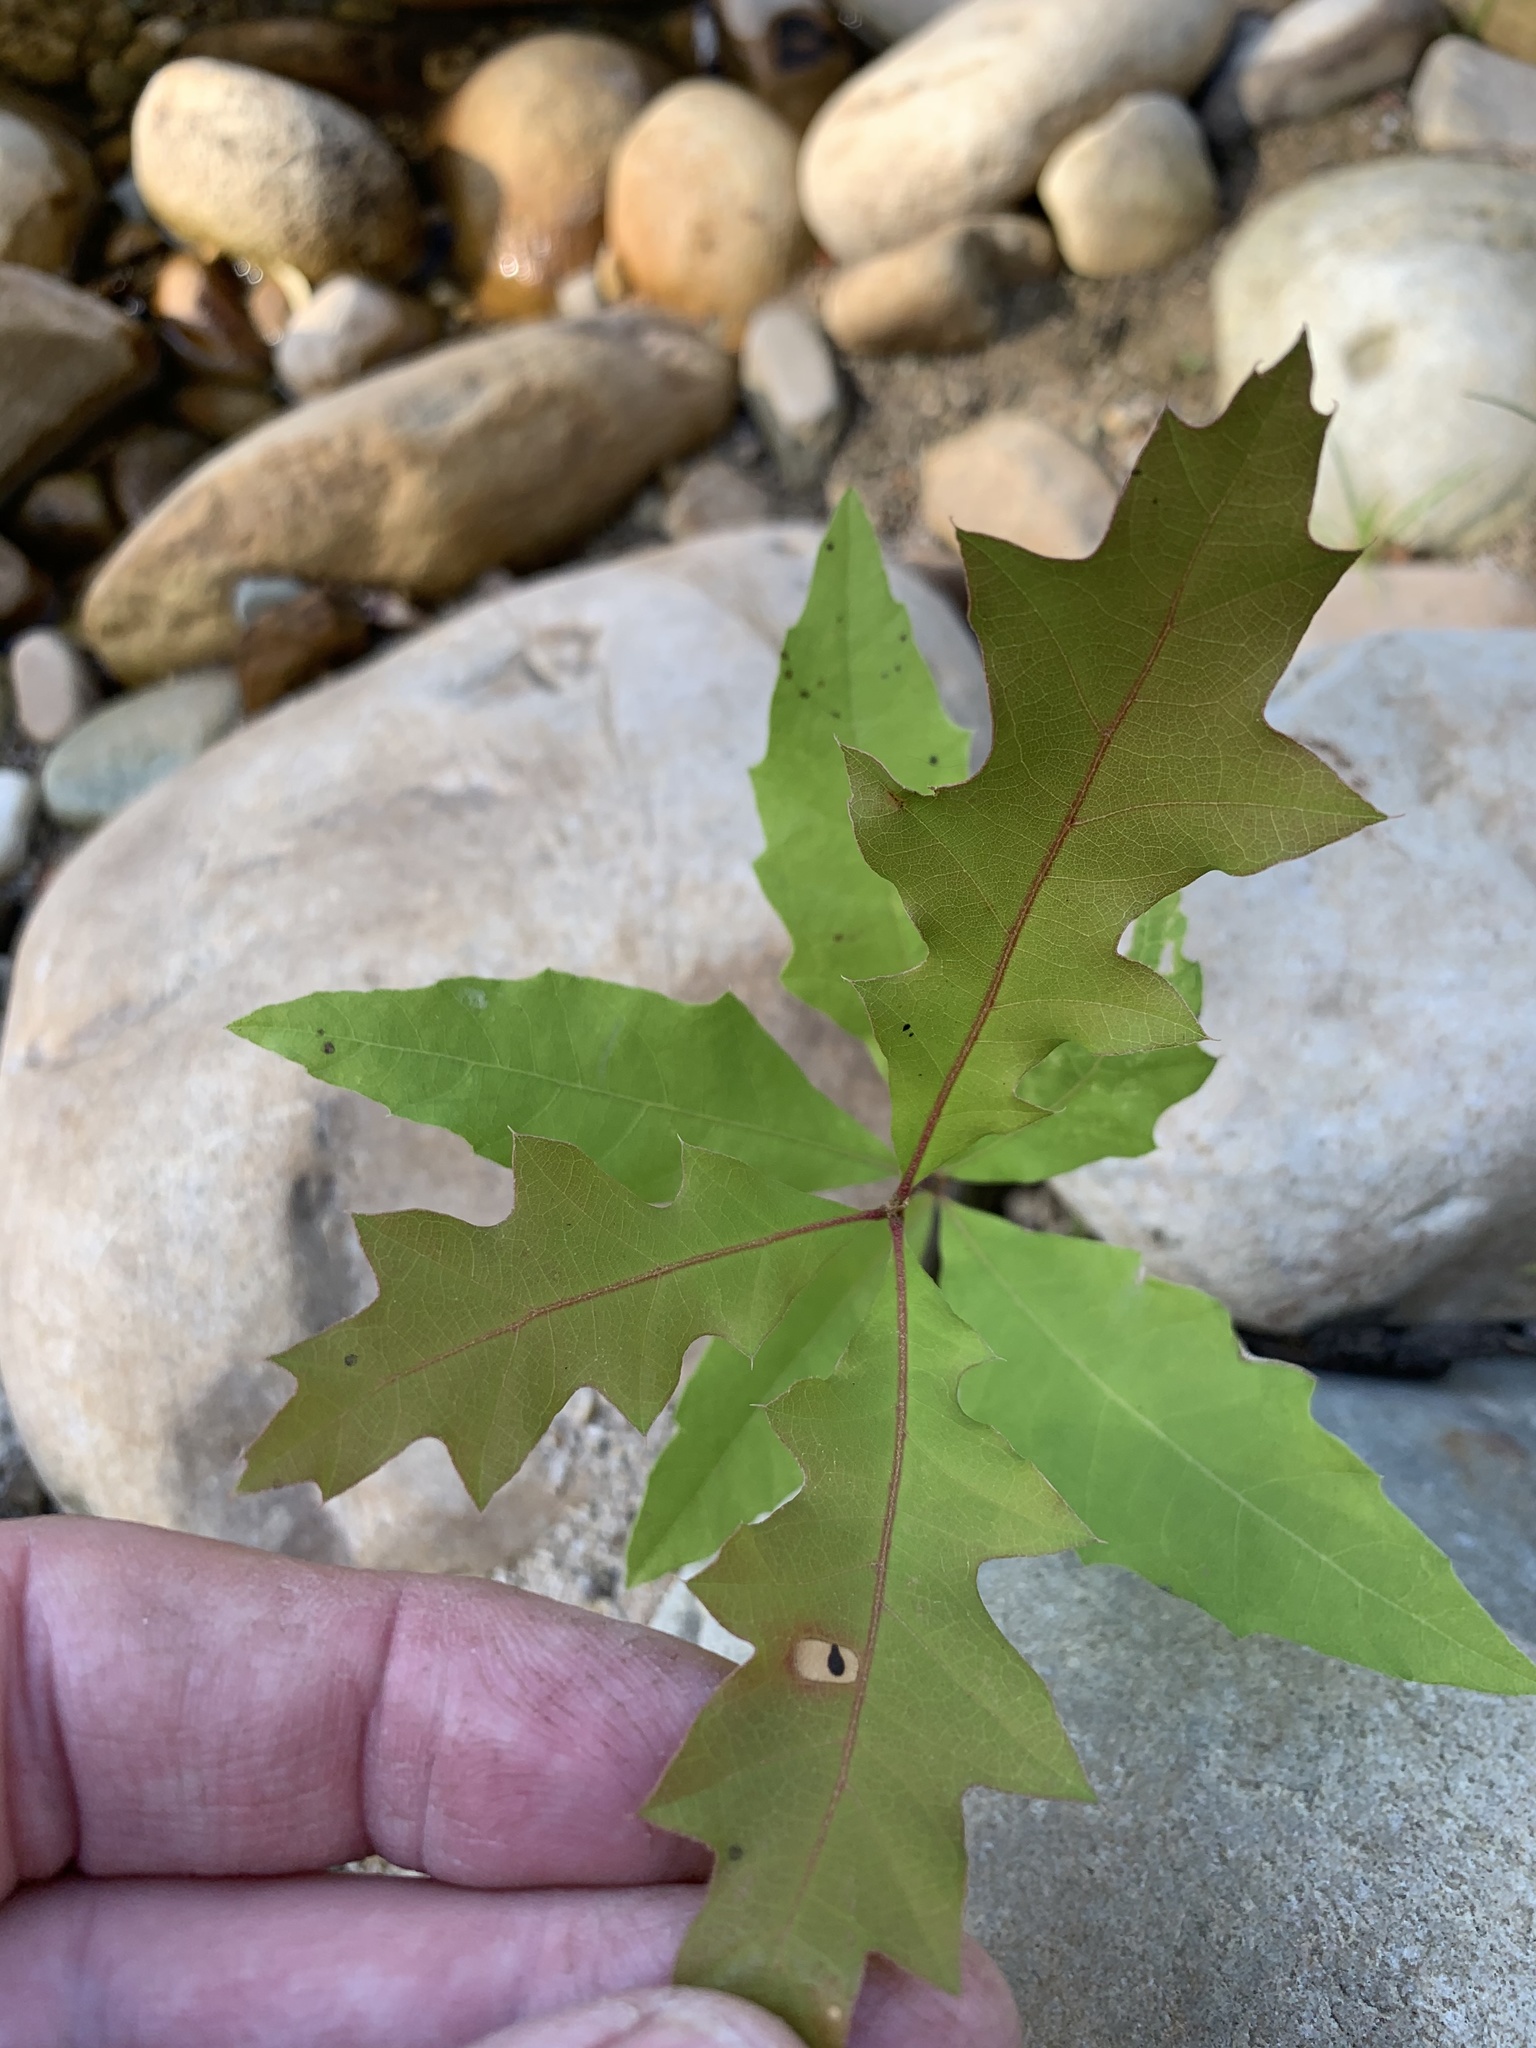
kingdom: Plantae
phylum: Tracheophyta
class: Magnoliopsida
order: Fagales
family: Fagaceae
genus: Quercus
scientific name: Quercus palustris
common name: Pin oak
